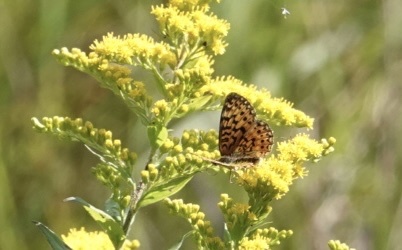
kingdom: Animalia
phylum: Arthropoda
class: Insecta
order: Lepidoptera
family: Nymphalidae
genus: Boloria
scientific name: Boloria
